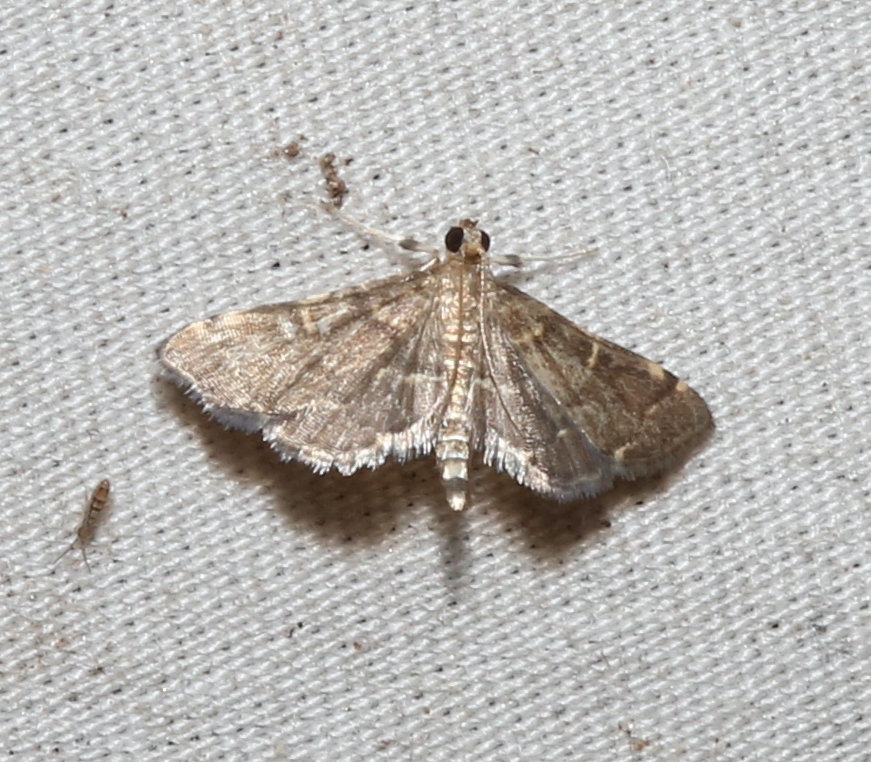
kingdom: Animalia
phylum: Arthropoda
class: Insecta
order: Lepidoptera
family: Crambidae
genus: Anageshna
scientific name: Anageshna primordialis
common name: Yellow-spotted webworm moth
